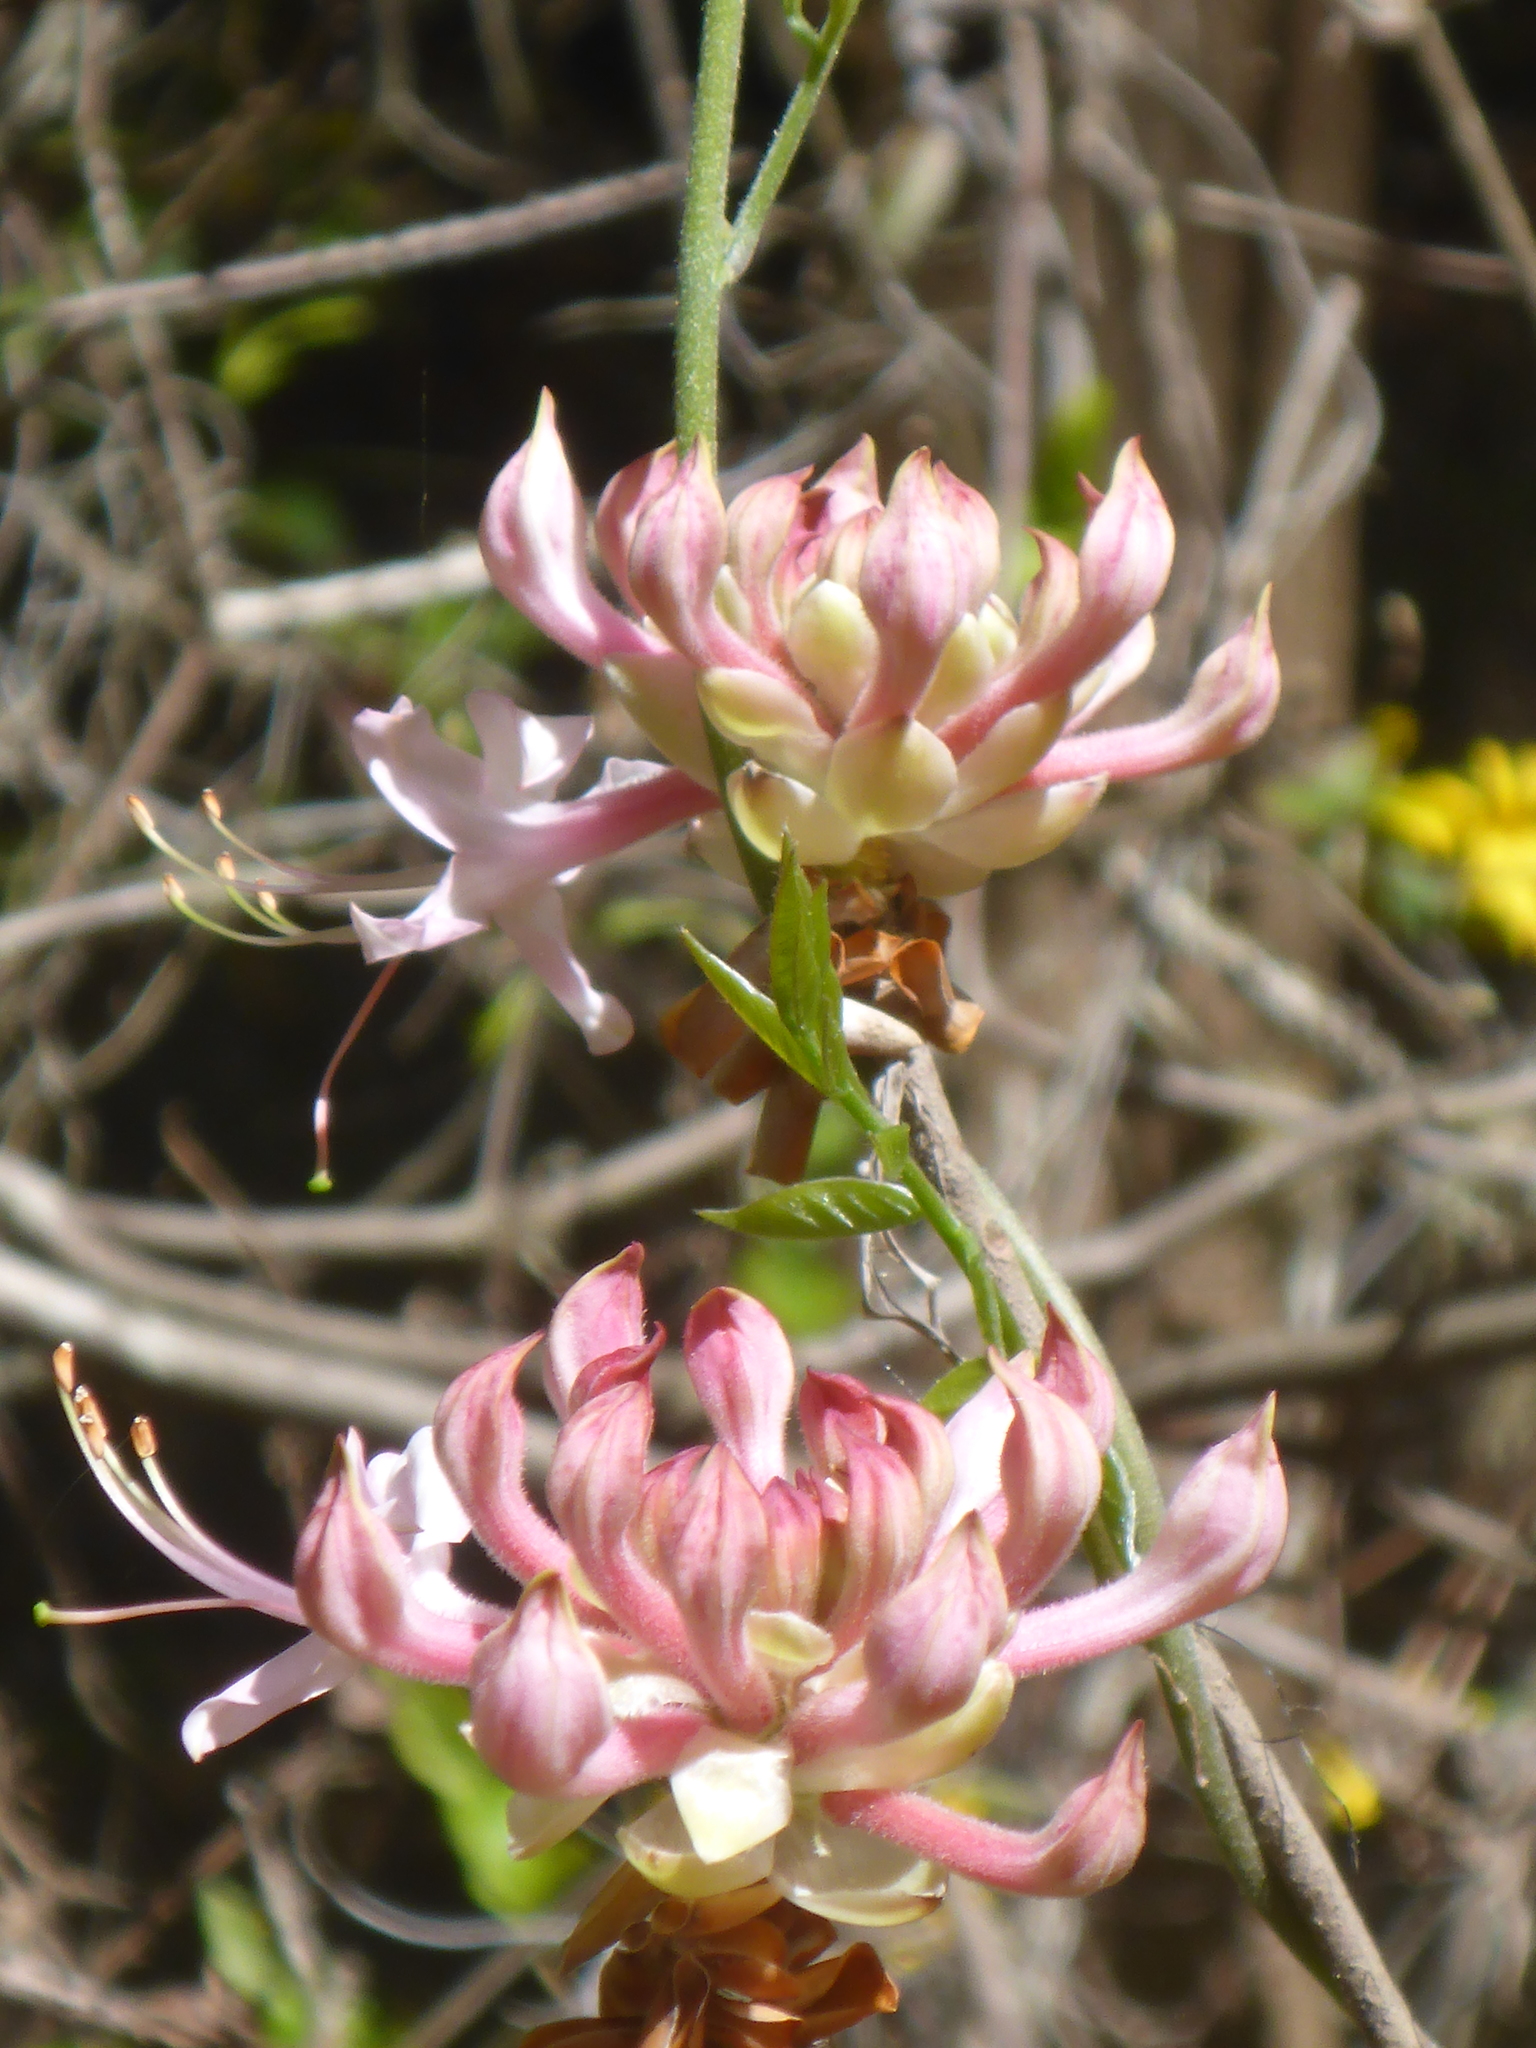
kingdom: Plantae
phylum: Tracheophyta
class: Magnoliopsida
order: Ericales
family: Ericaceae
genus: Rhododendron
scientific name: Rhododendron canescens
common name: Mountain azalea
